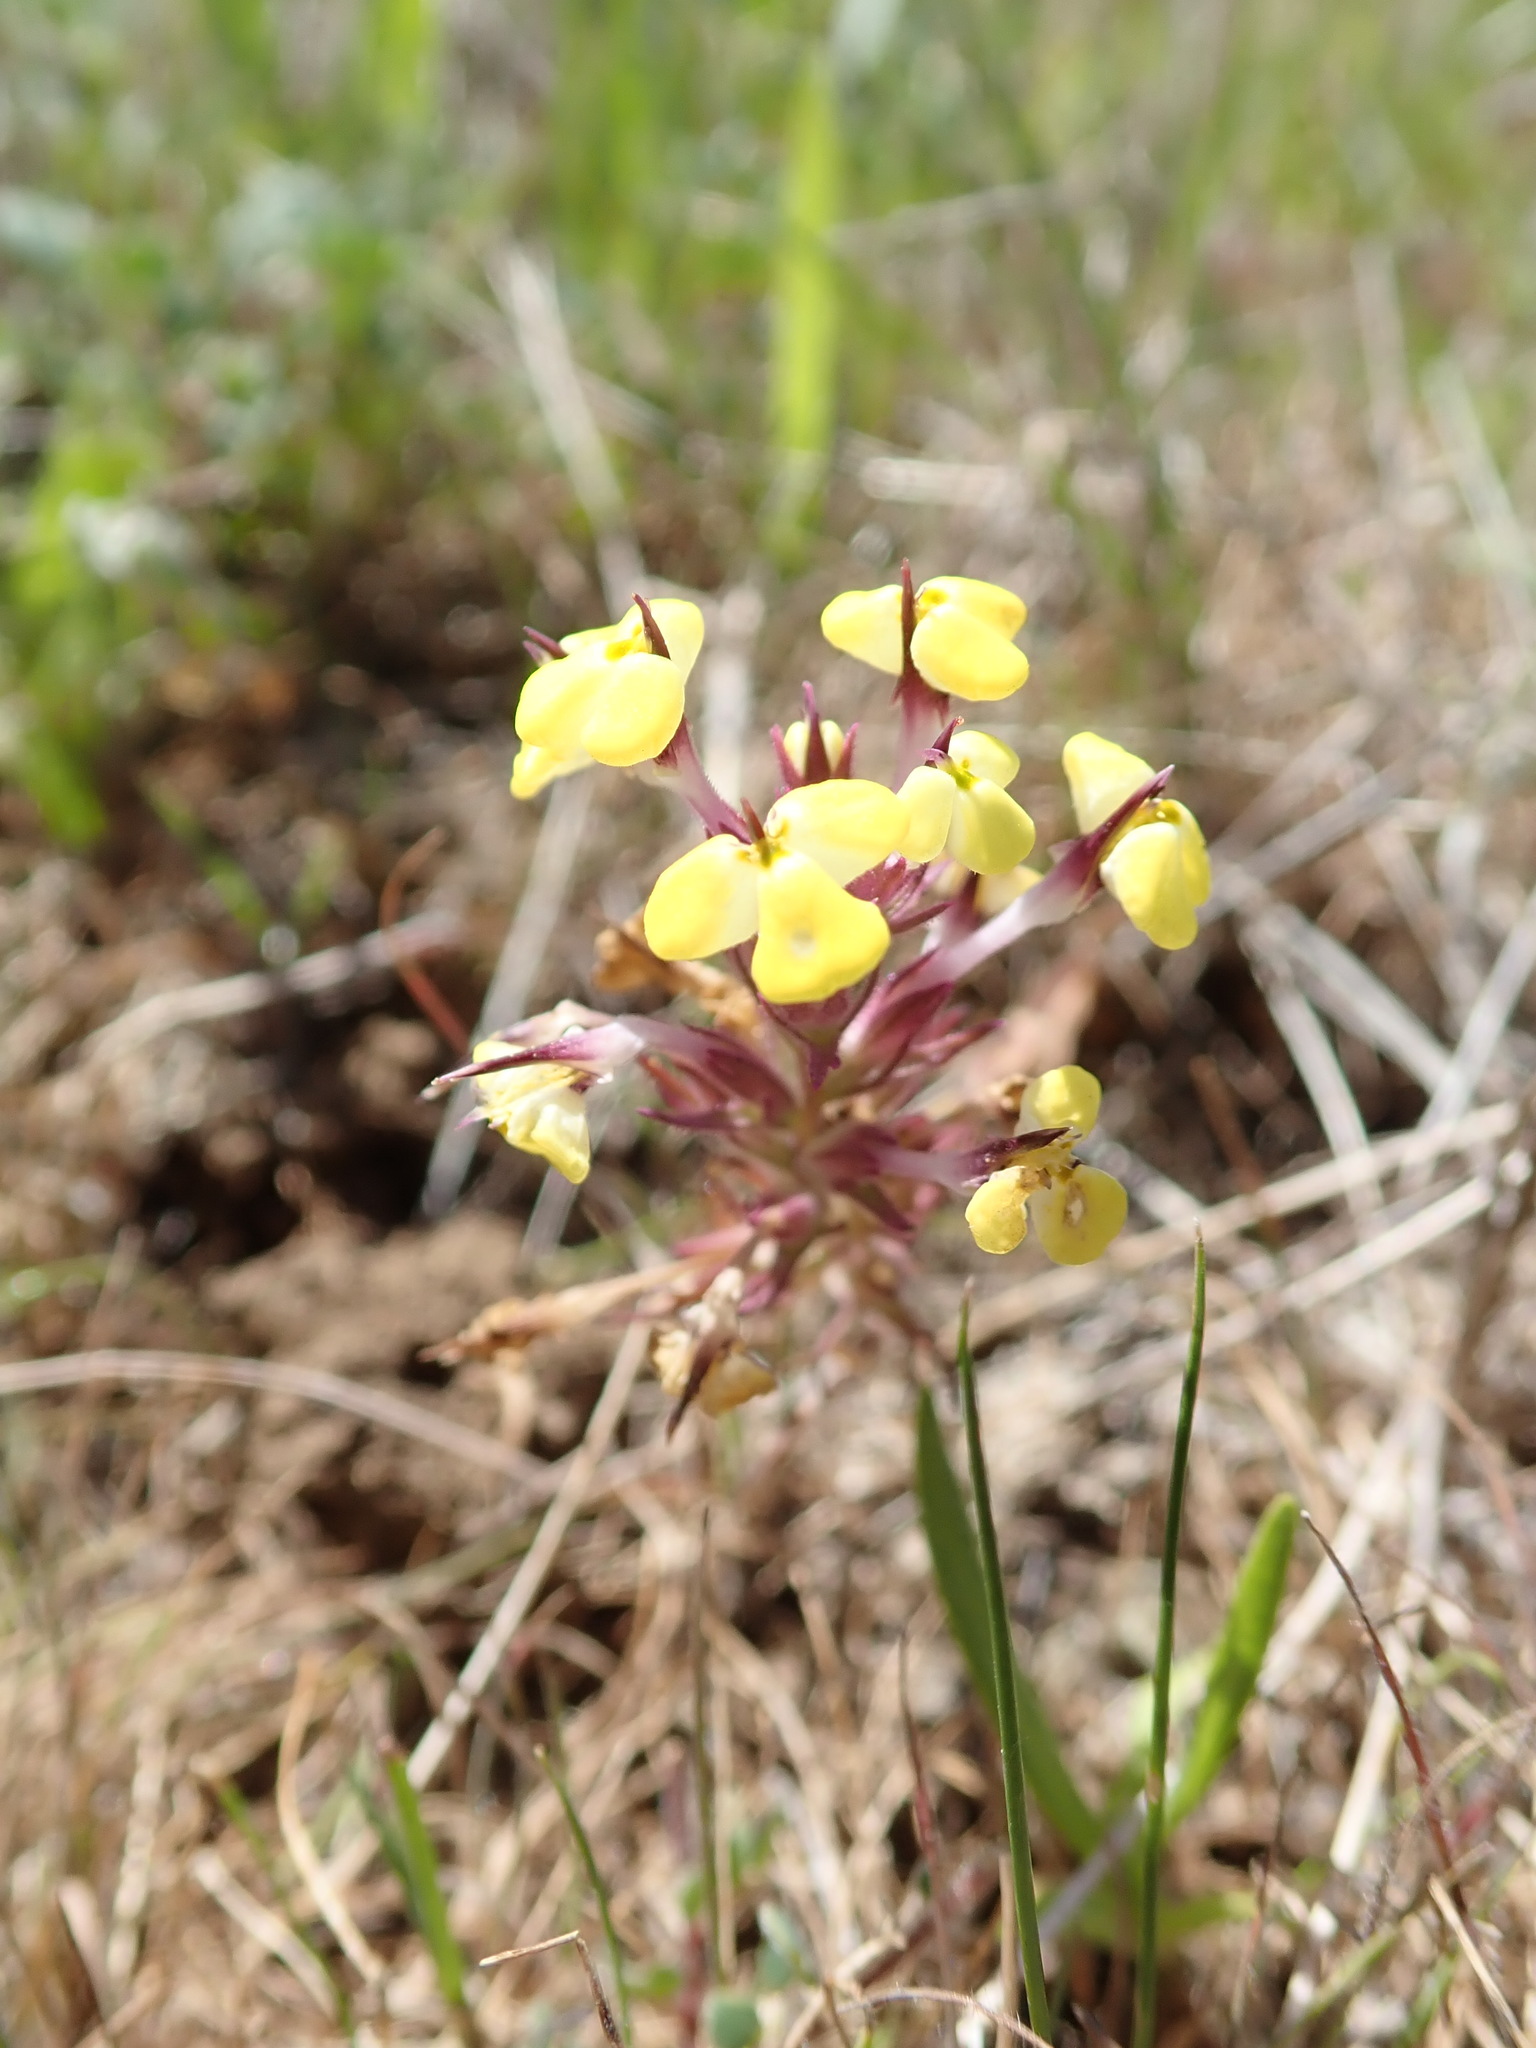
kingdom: Plantae
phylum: Tracheophyta
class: Magnoliopsida
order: Lamiales
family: Orobanchaceae
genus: Triphysaria
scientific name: Triphysaria eriantha
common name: Johnny-tuck
